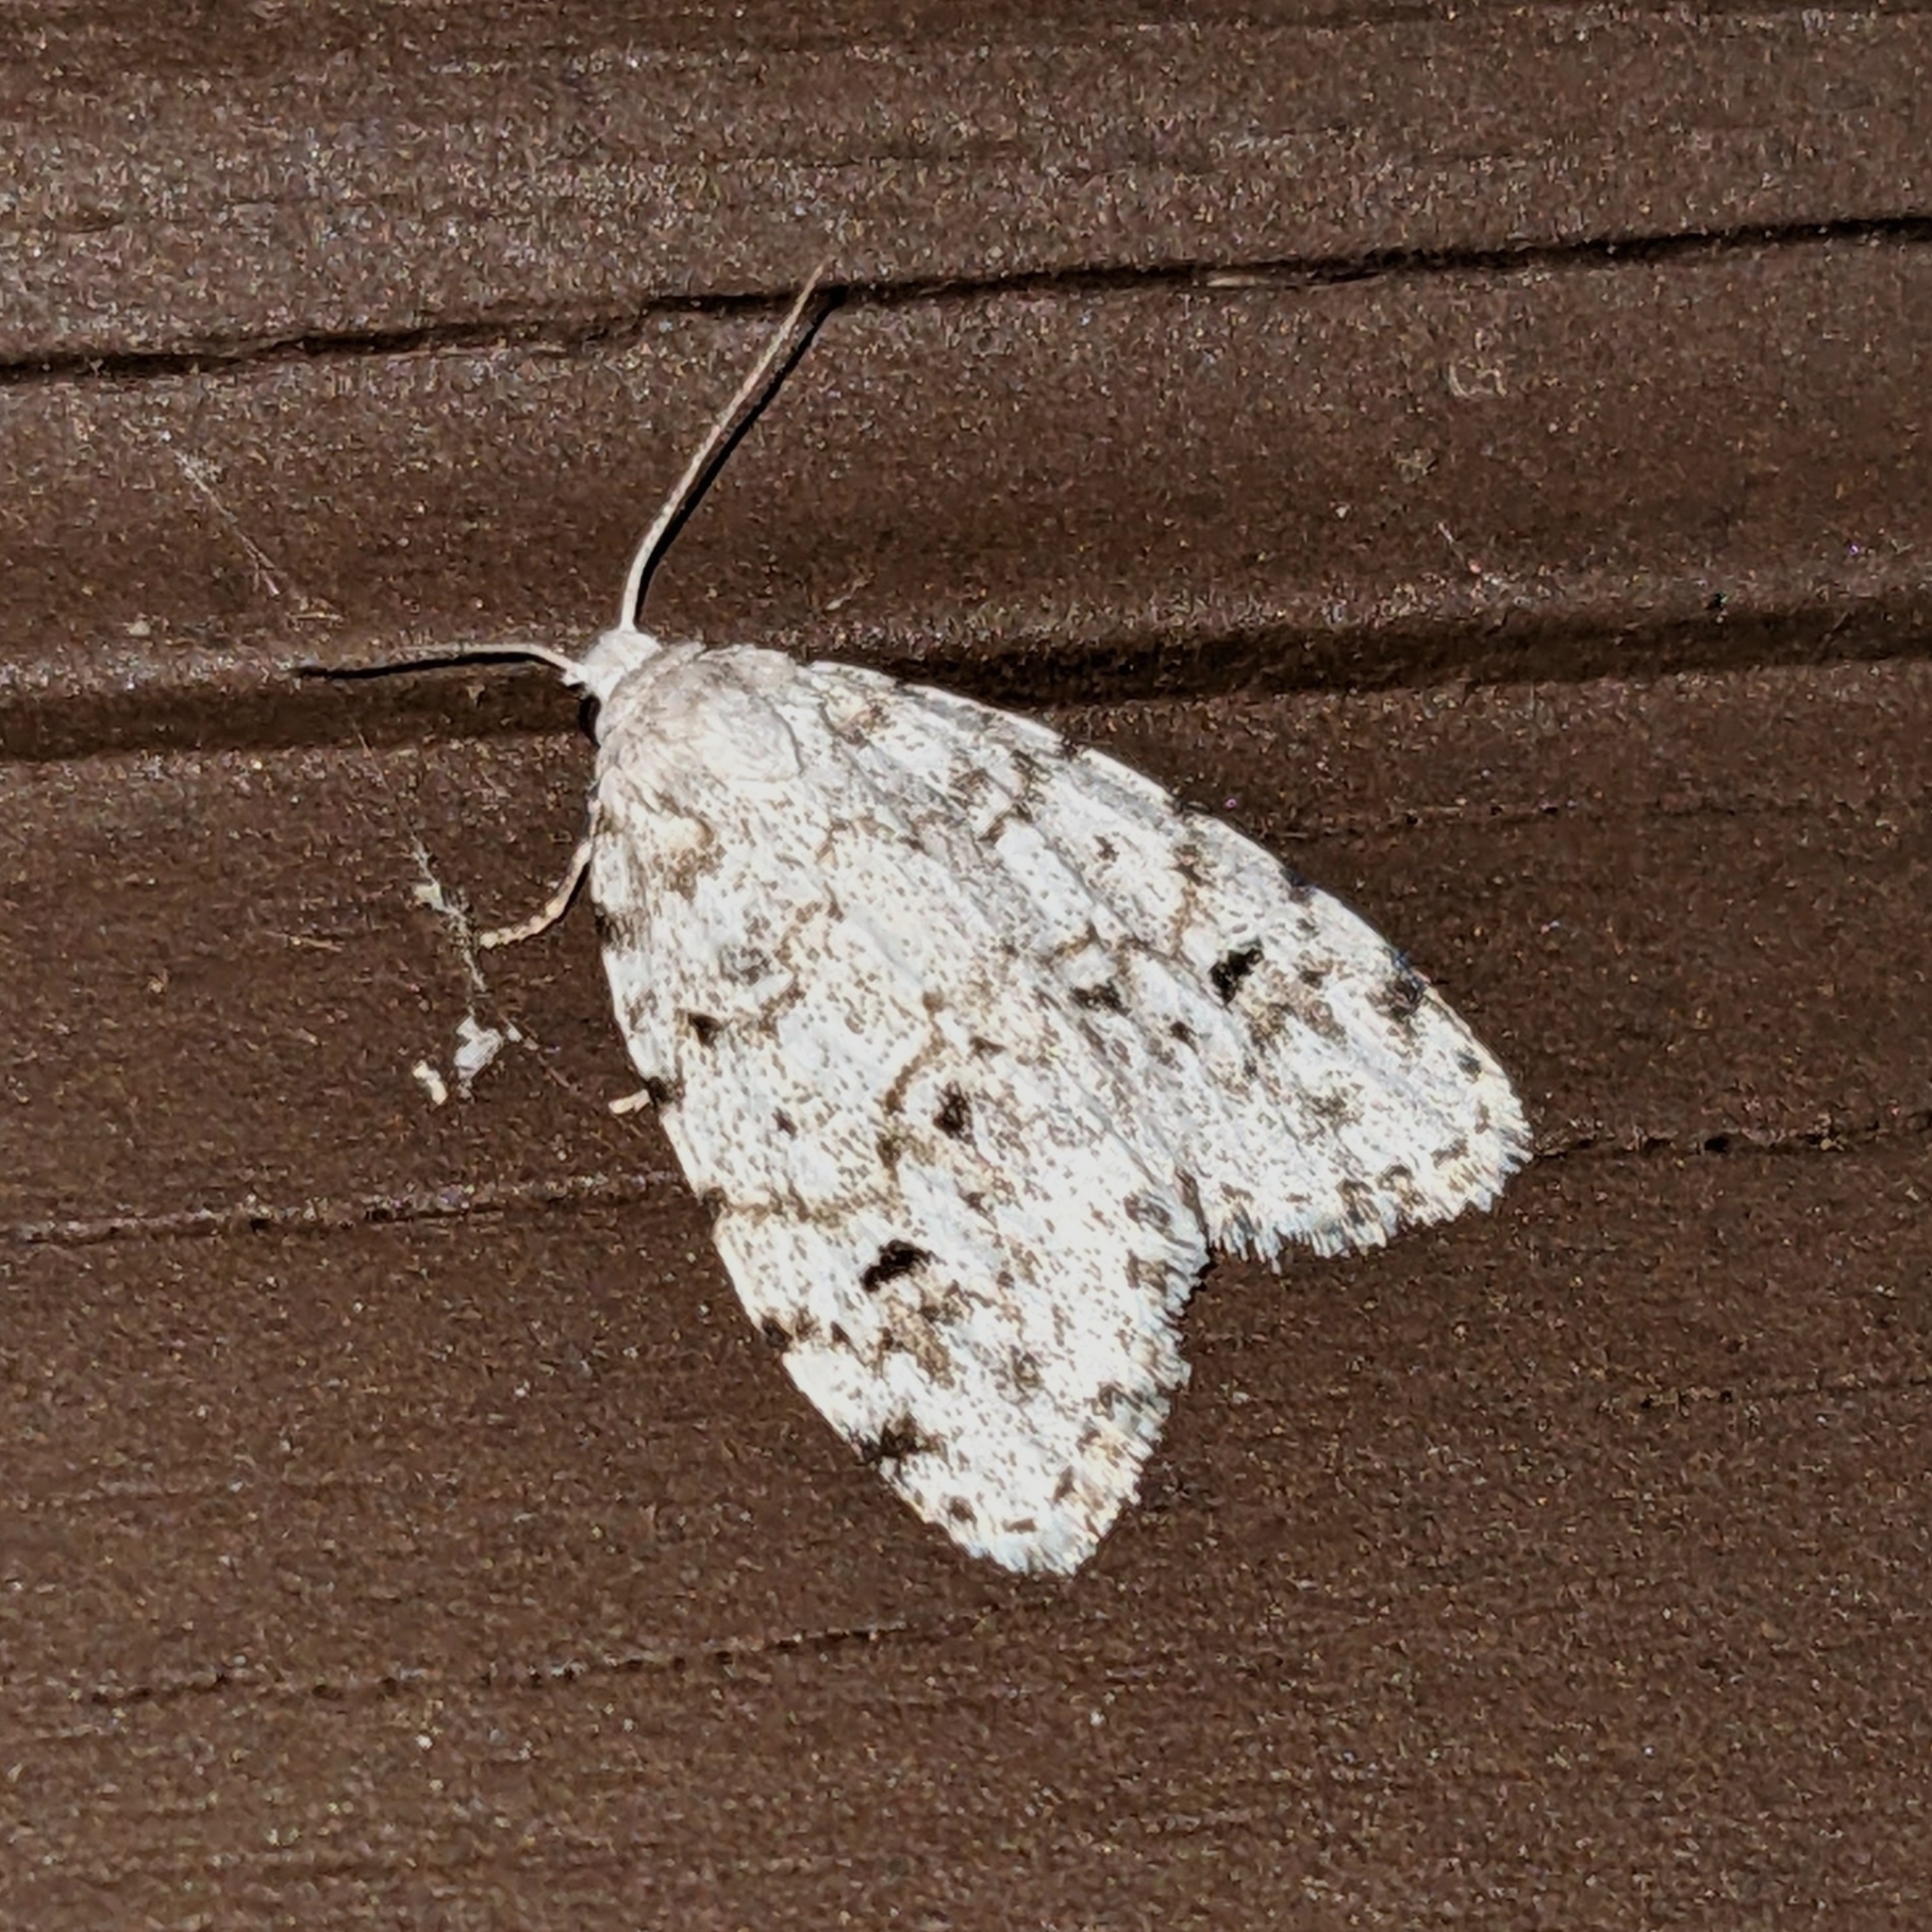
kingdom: Animalia
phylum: Arthropoda
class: Insecta
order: Lepidoptera
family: Erebidae
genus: Clemensia
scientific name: Clemensia albata
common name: Little white lichen moth
